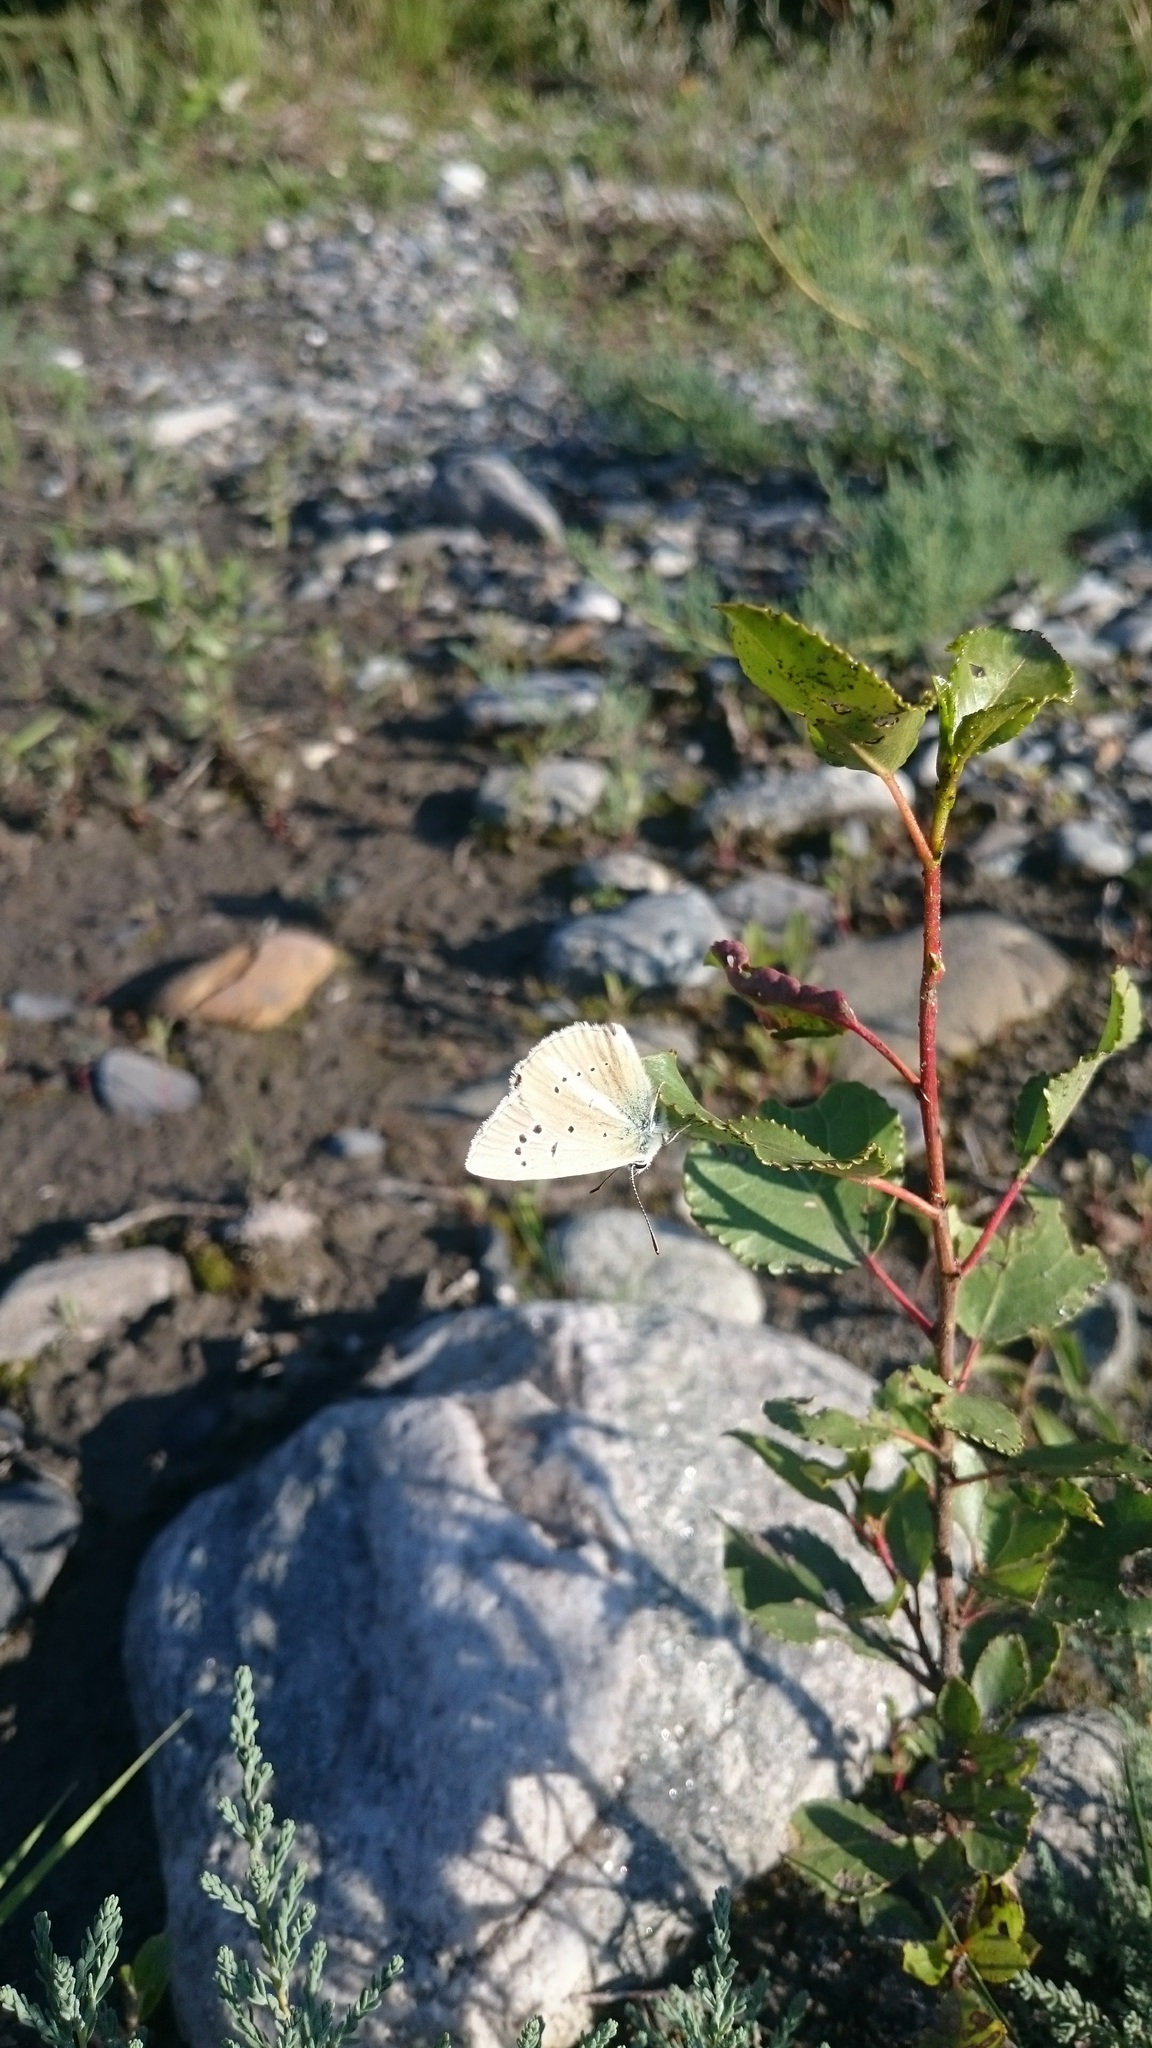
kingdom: Animalia
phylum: Arthropoda
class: Insecta
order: Lepidoptera
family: Lycaenidae
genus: Agrodiaetus
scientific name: Agrodiaetus damon
